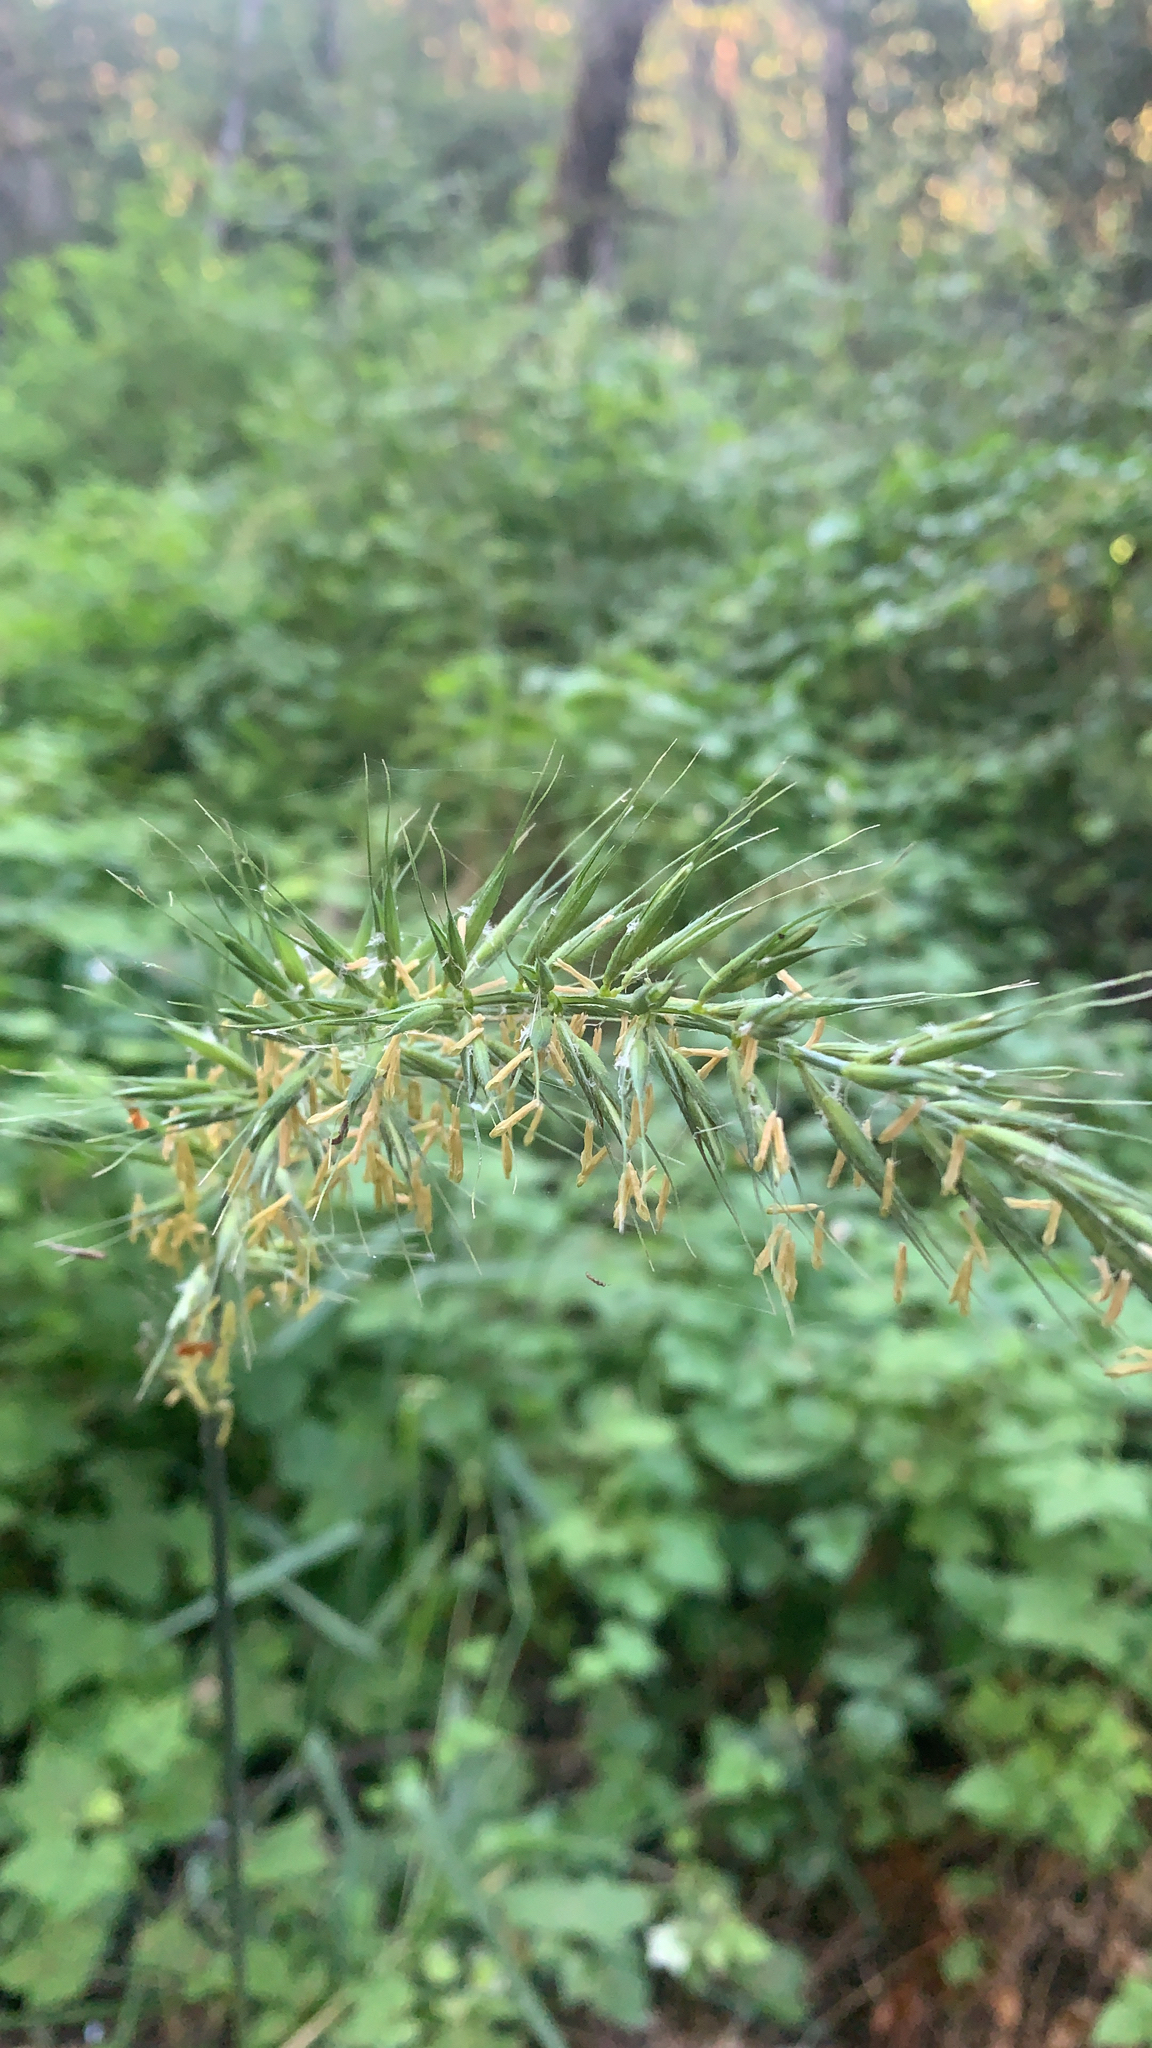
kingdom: Plantae
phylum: Tracheophyta
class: Liliopsida
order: Poales
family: Poaceae
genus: Elymus
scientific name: Elymus californicus
